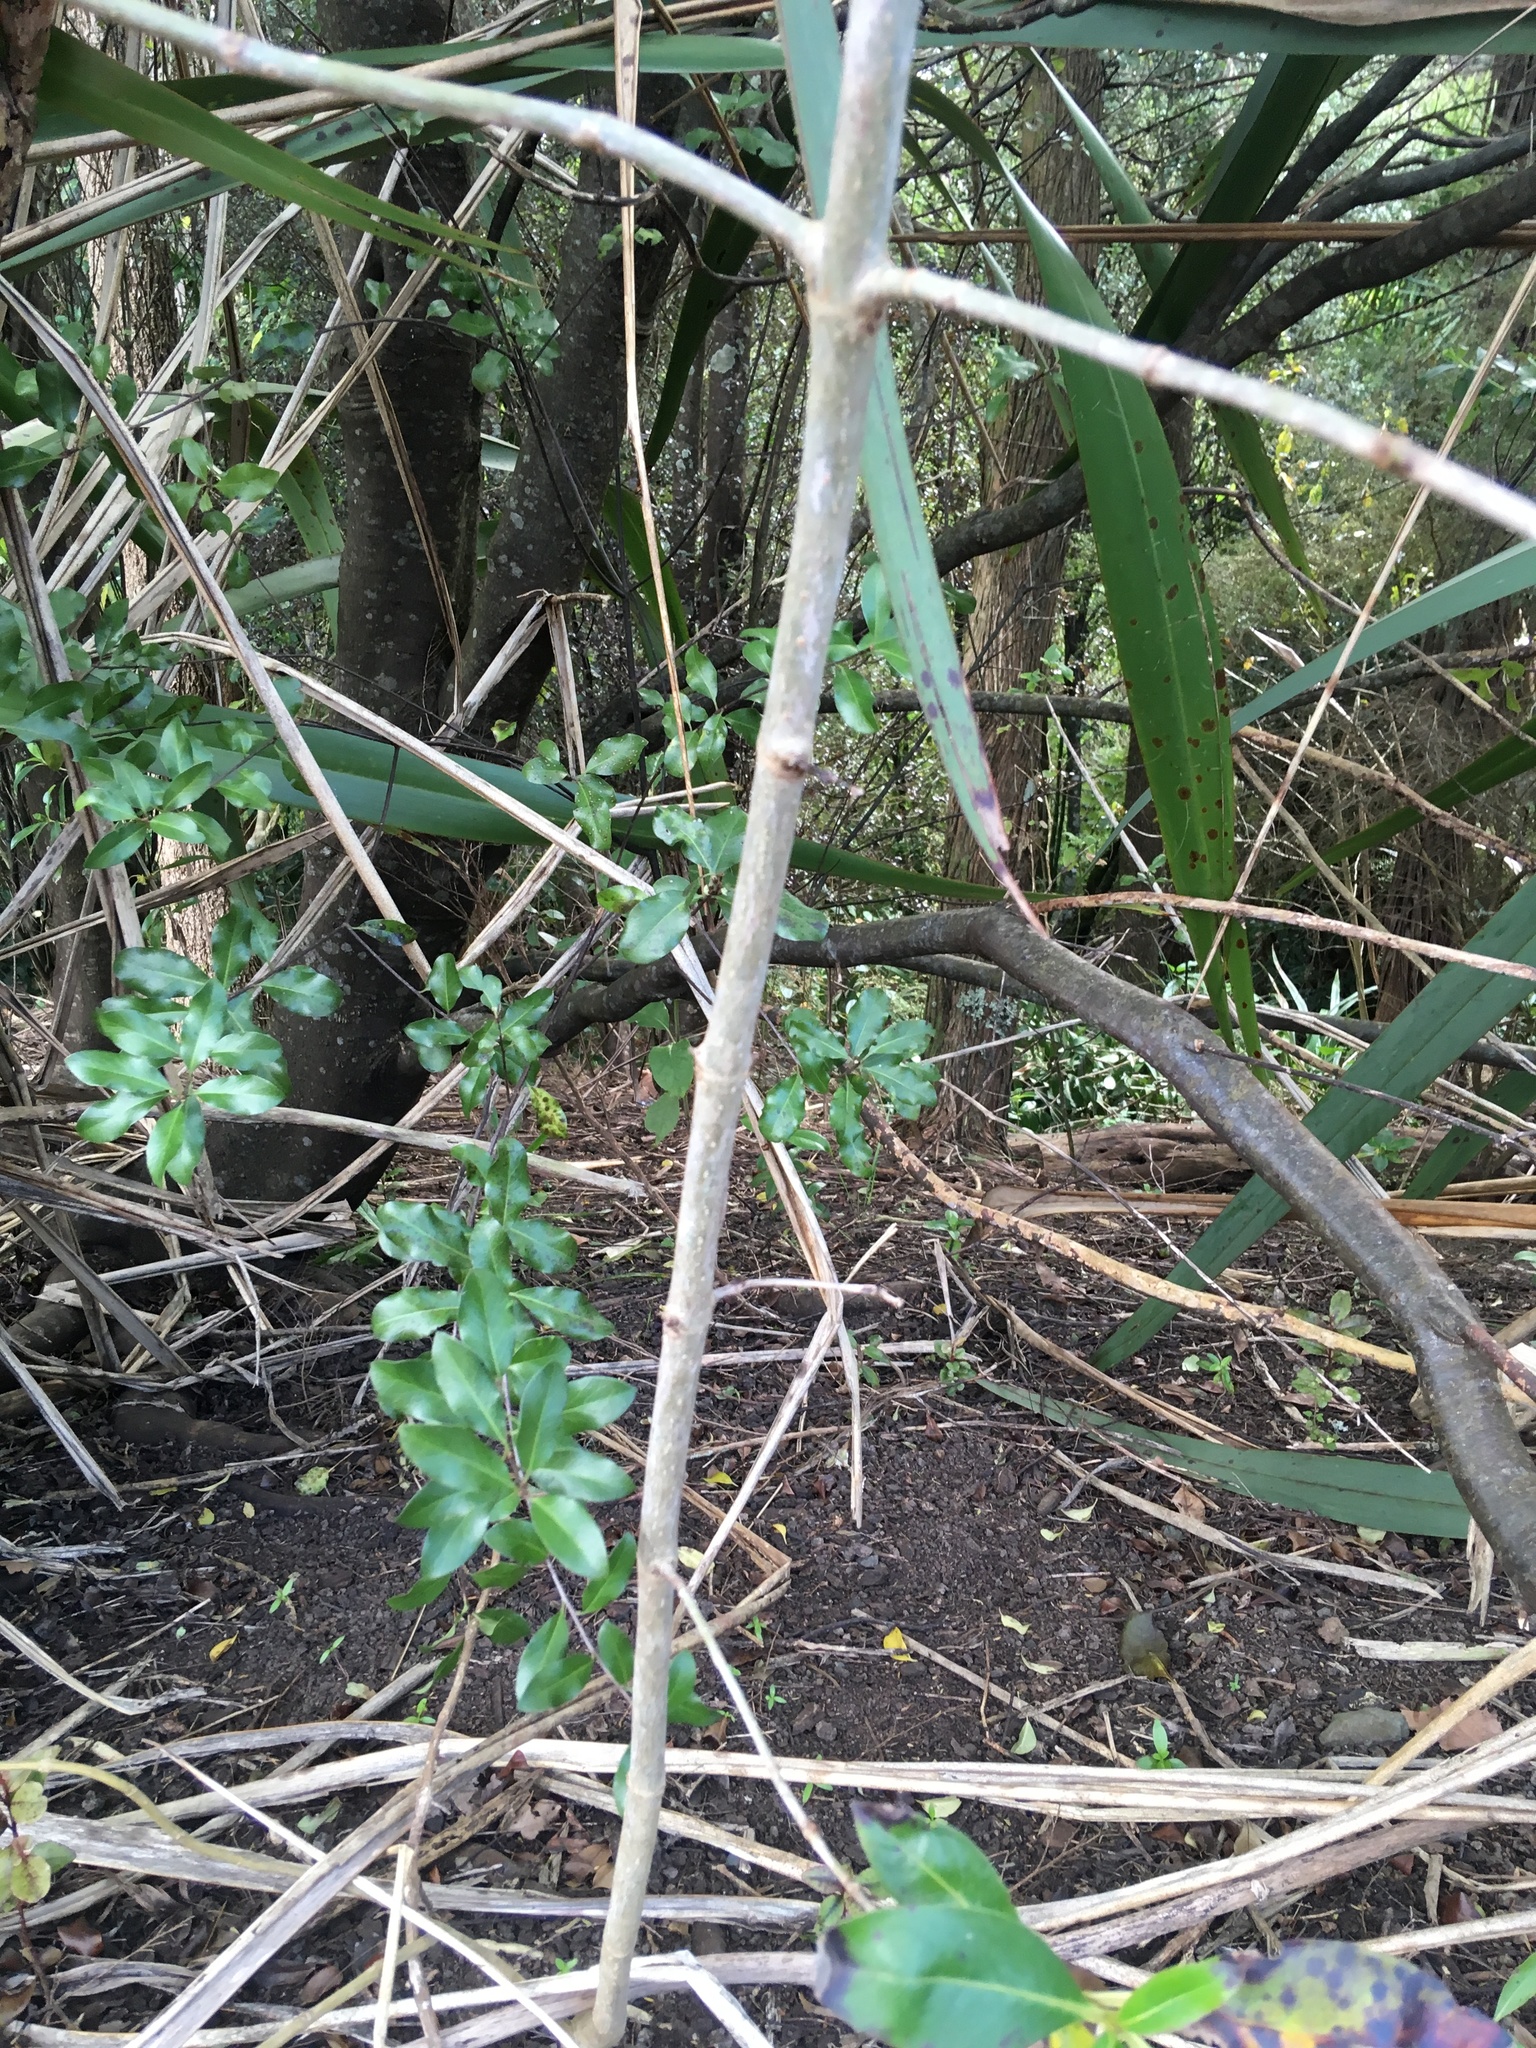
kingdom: Plantae
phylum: Tracheophyta
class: Magnoliopsida
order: Apiales
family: Pittosporaceae
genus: Pittosporum
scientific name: Pittosporum tenuifolium
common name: Kohuhu
